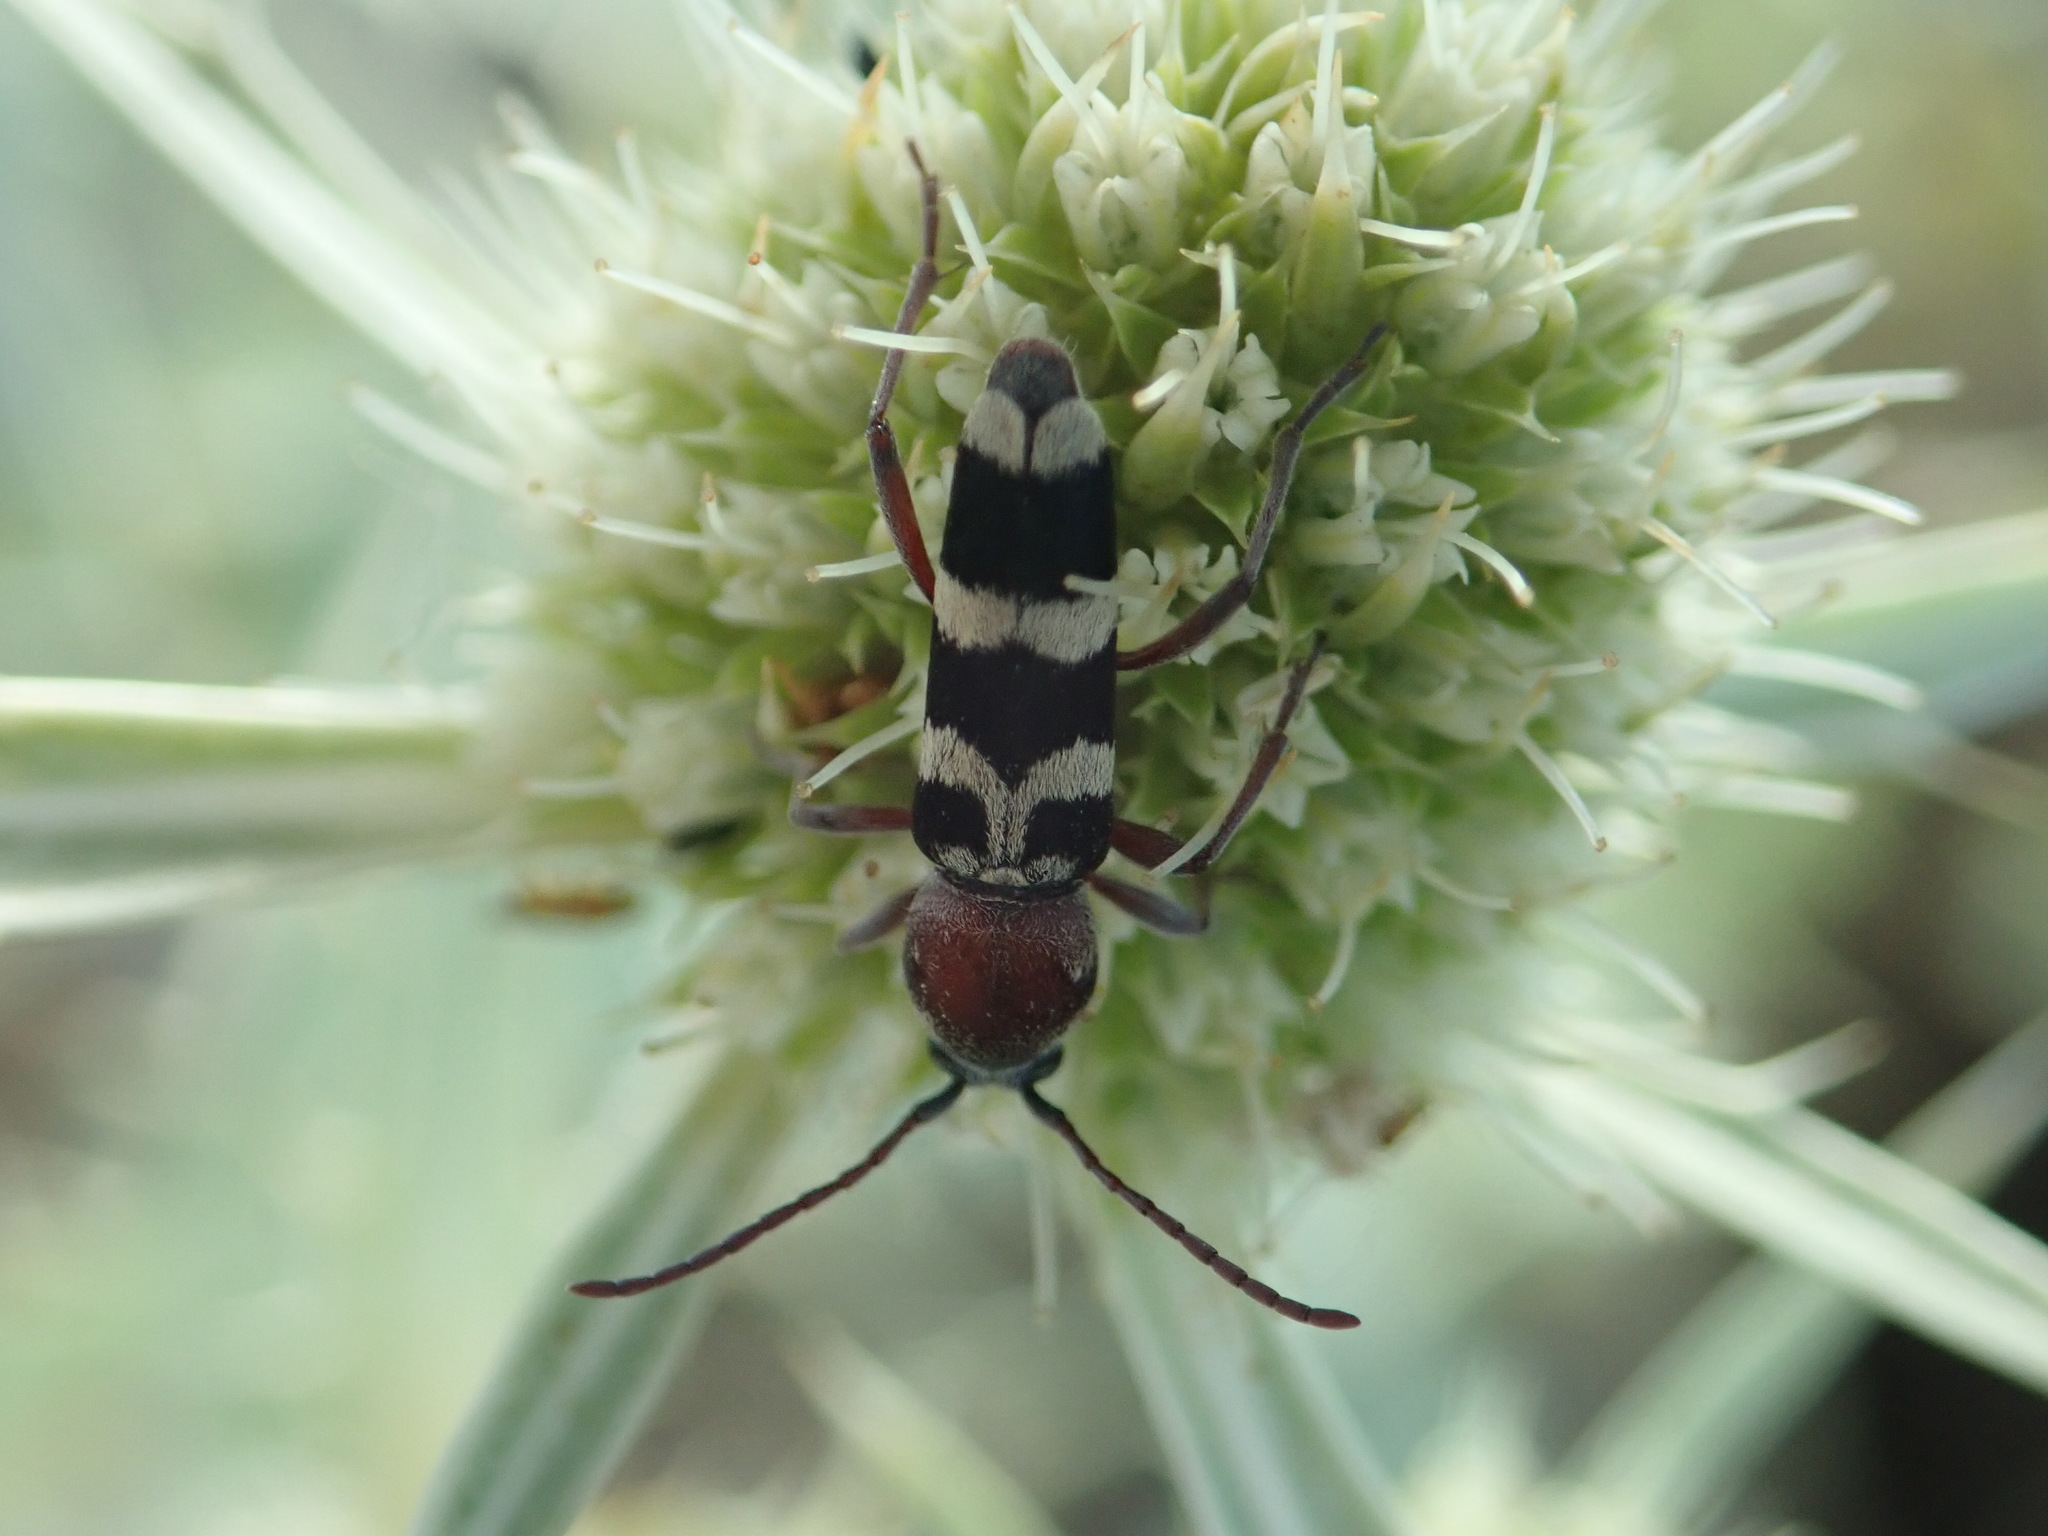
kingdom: Animalia
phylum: Arthropoda
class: Insecta
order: Coleoptera
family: Cerambycidae
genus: Chlorophorus
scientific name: Chlorophorus trifasciatus
